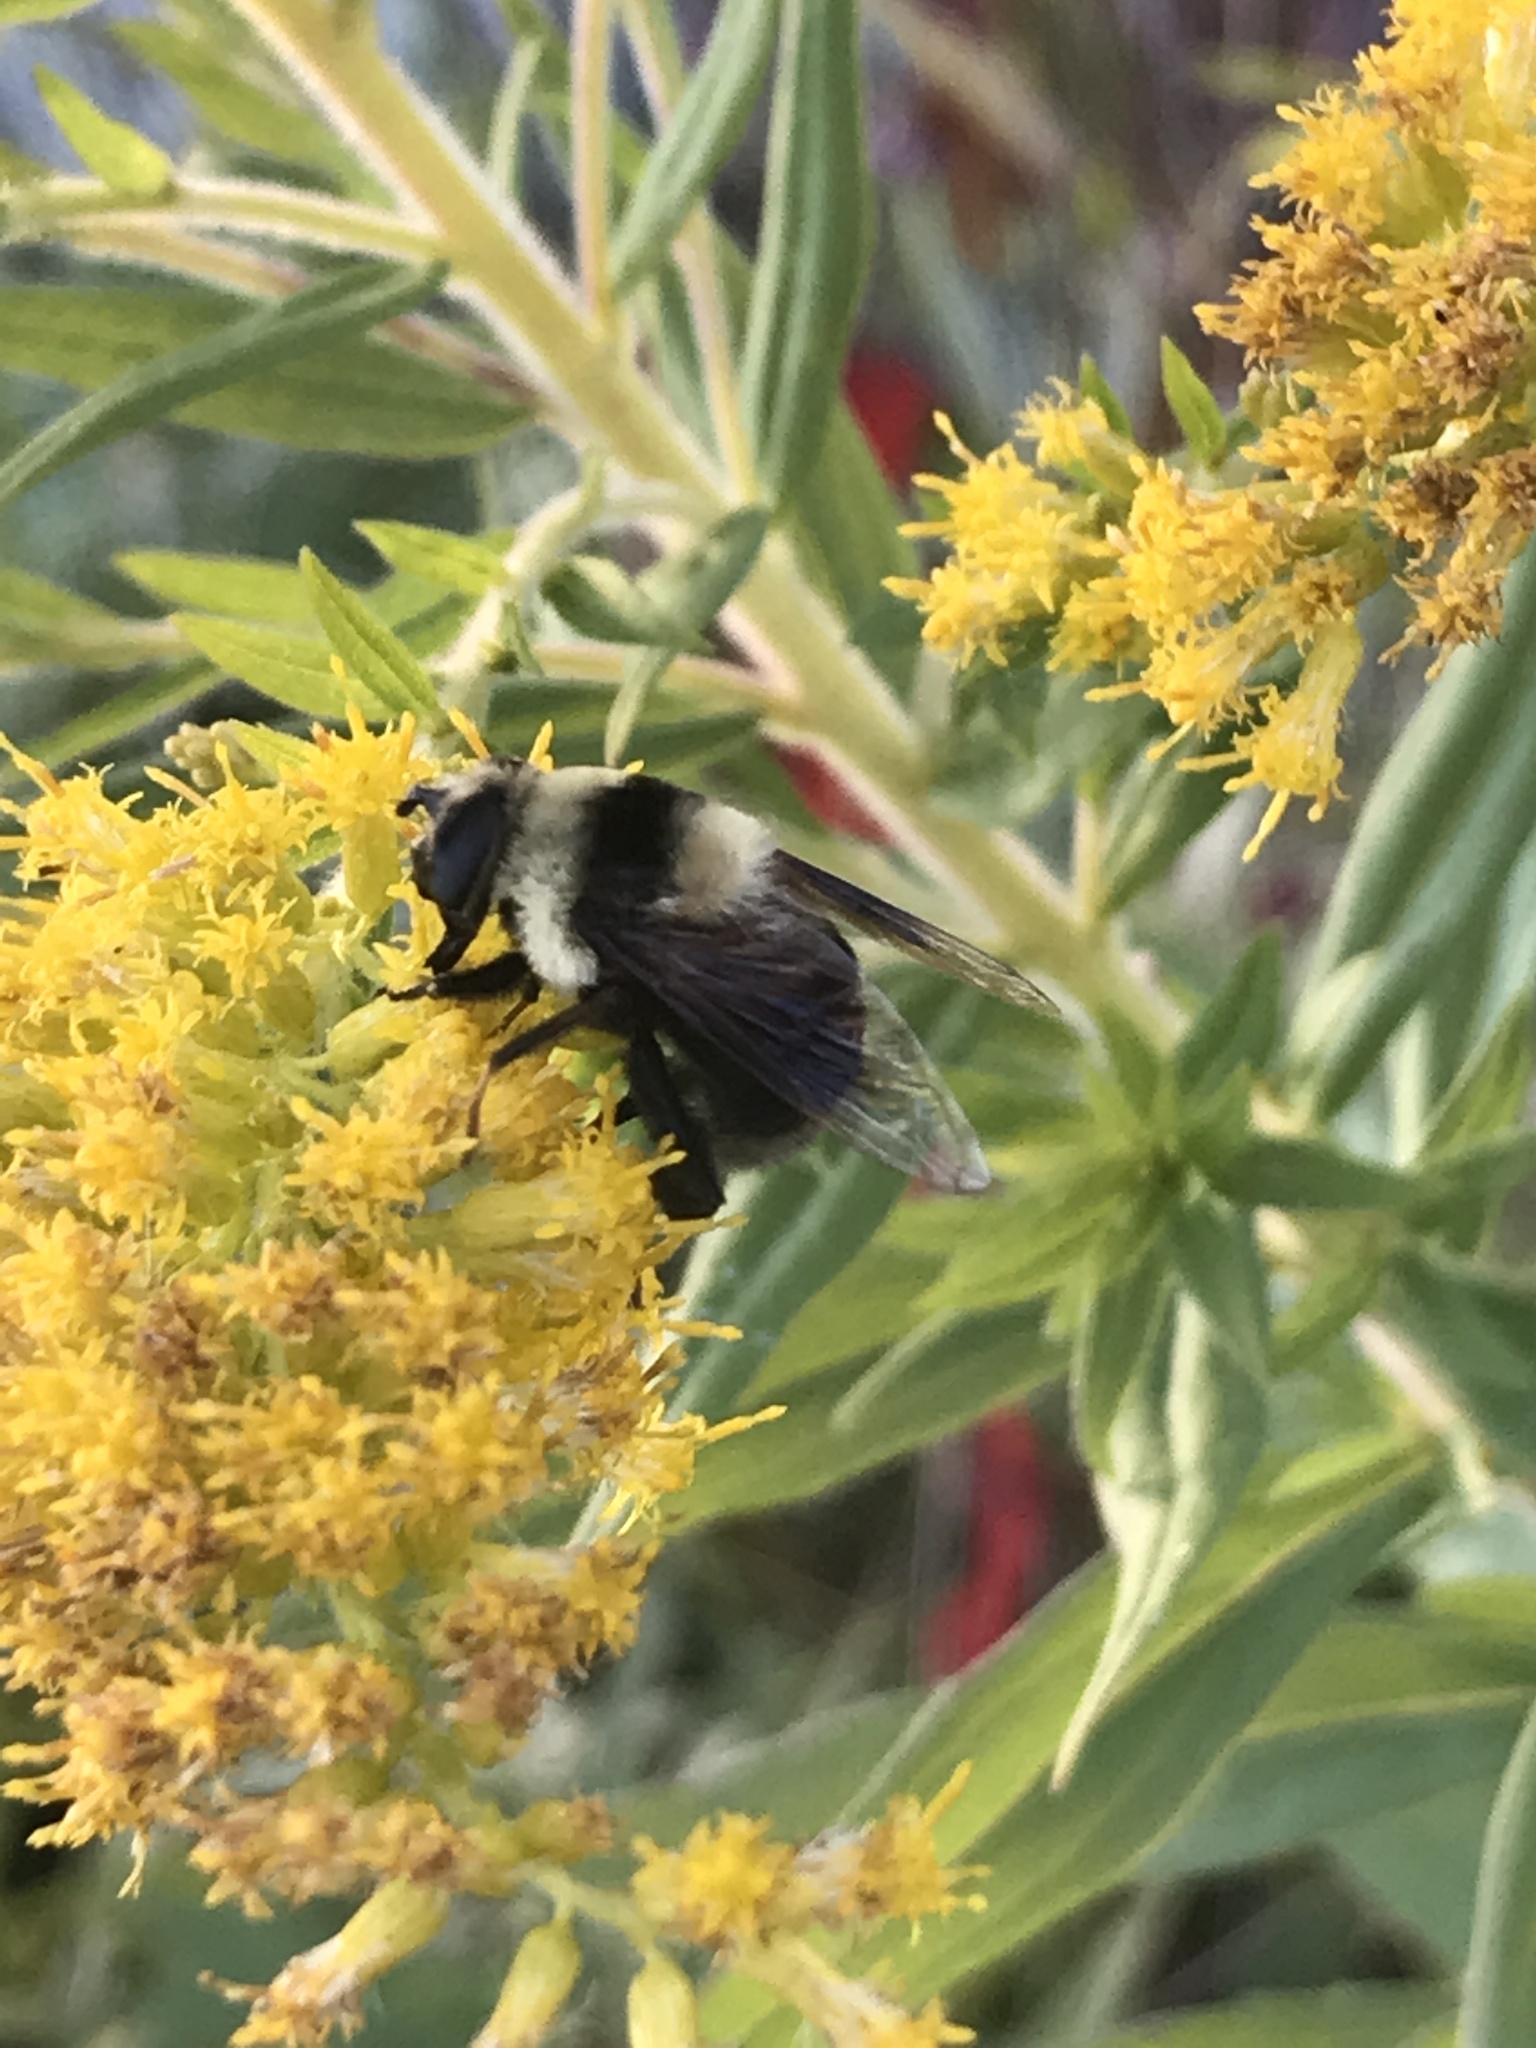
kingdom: Animalia
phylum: Arthropoda
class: Insecta
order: Diptera
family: Syrphidae
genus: Eristalis
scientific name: Eristalis flavipes
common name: Orange-legged drone fly
